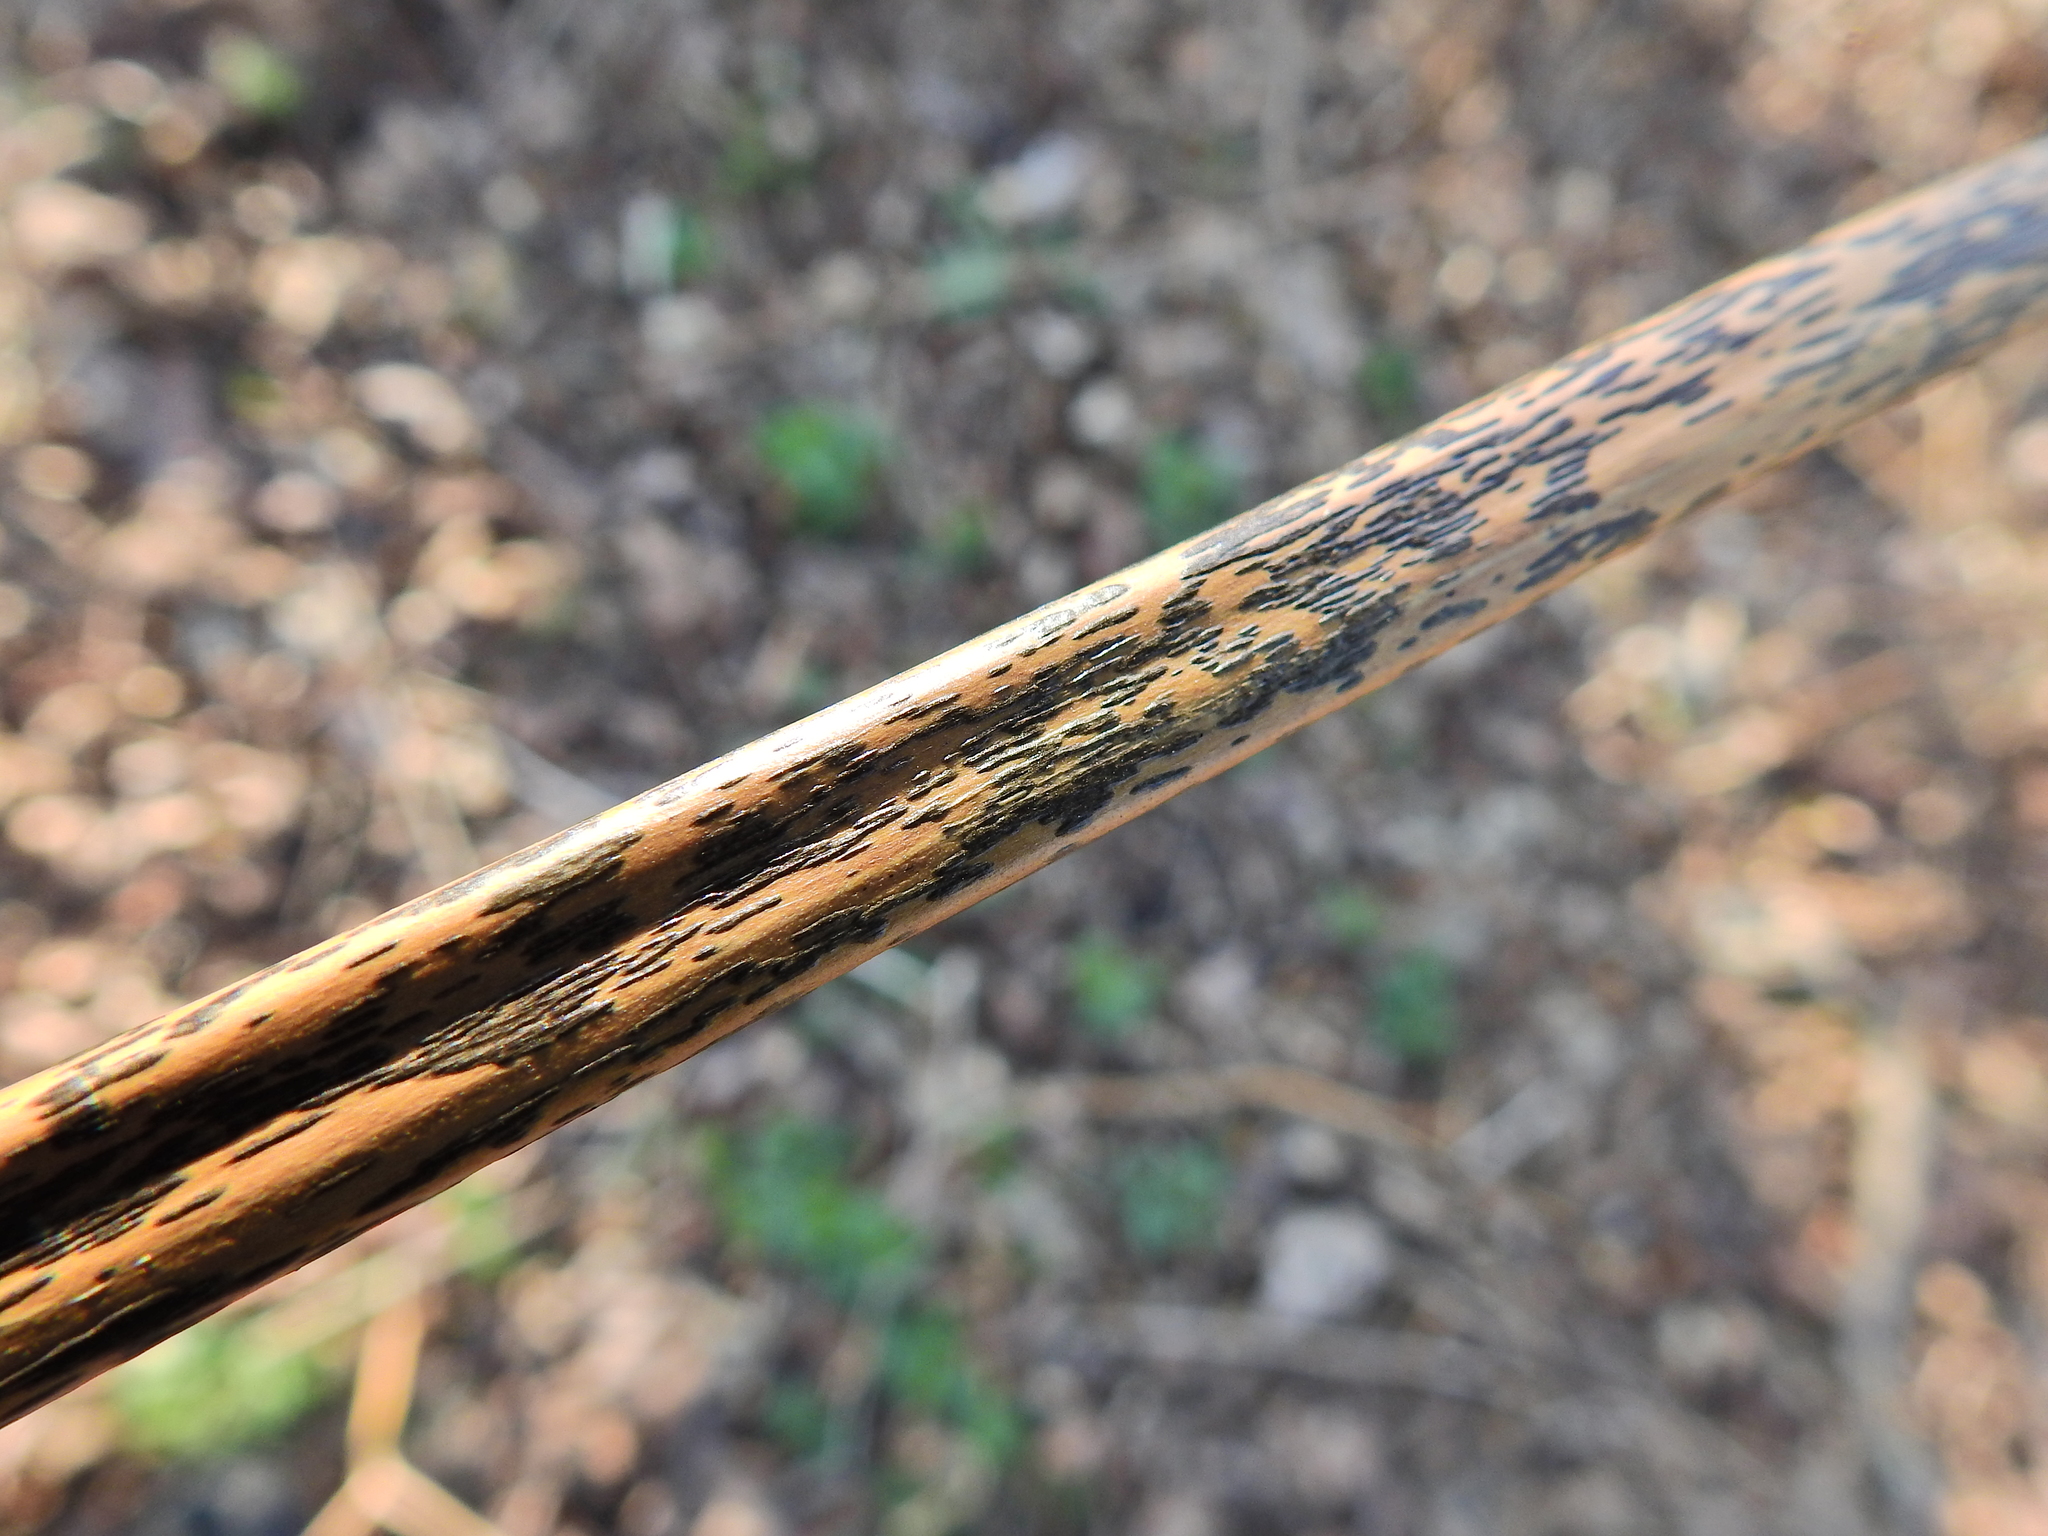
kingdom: Fungi
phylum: Ascomycota
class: Dothideomycetes
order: Pleosporales
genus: Rhopographus
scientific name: Rhopographus filicinus
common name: Bracken map
